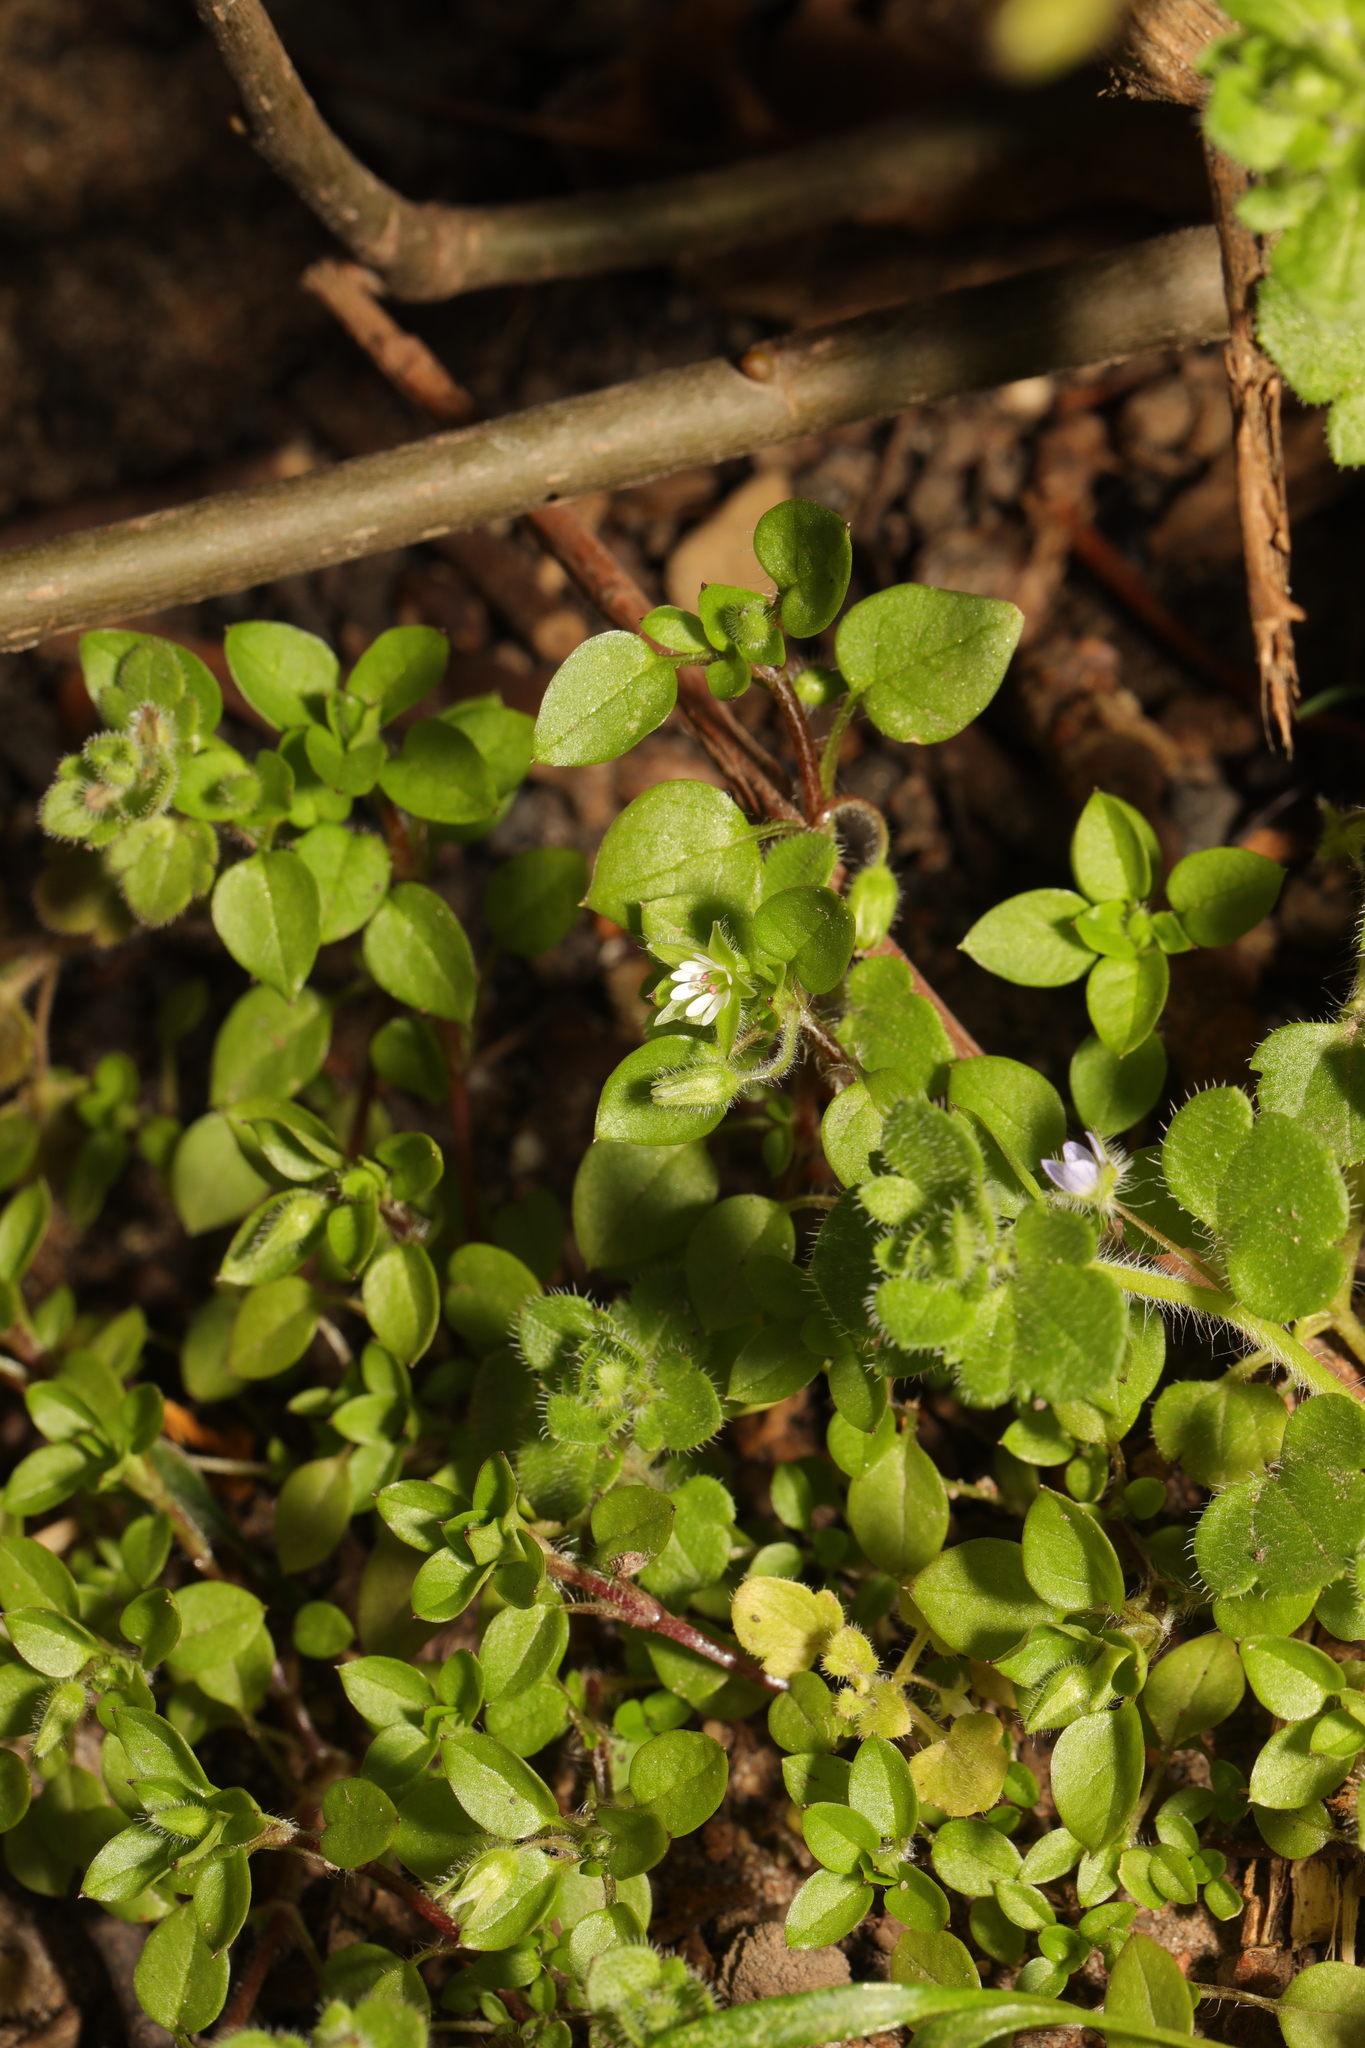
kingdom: Plantae
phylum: Tracheophyta
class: Magnoliopsida
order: Caryophyllales
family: Caryophyllaceae
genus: Stellaria
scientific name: Stellaria media
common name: Common chickweed
